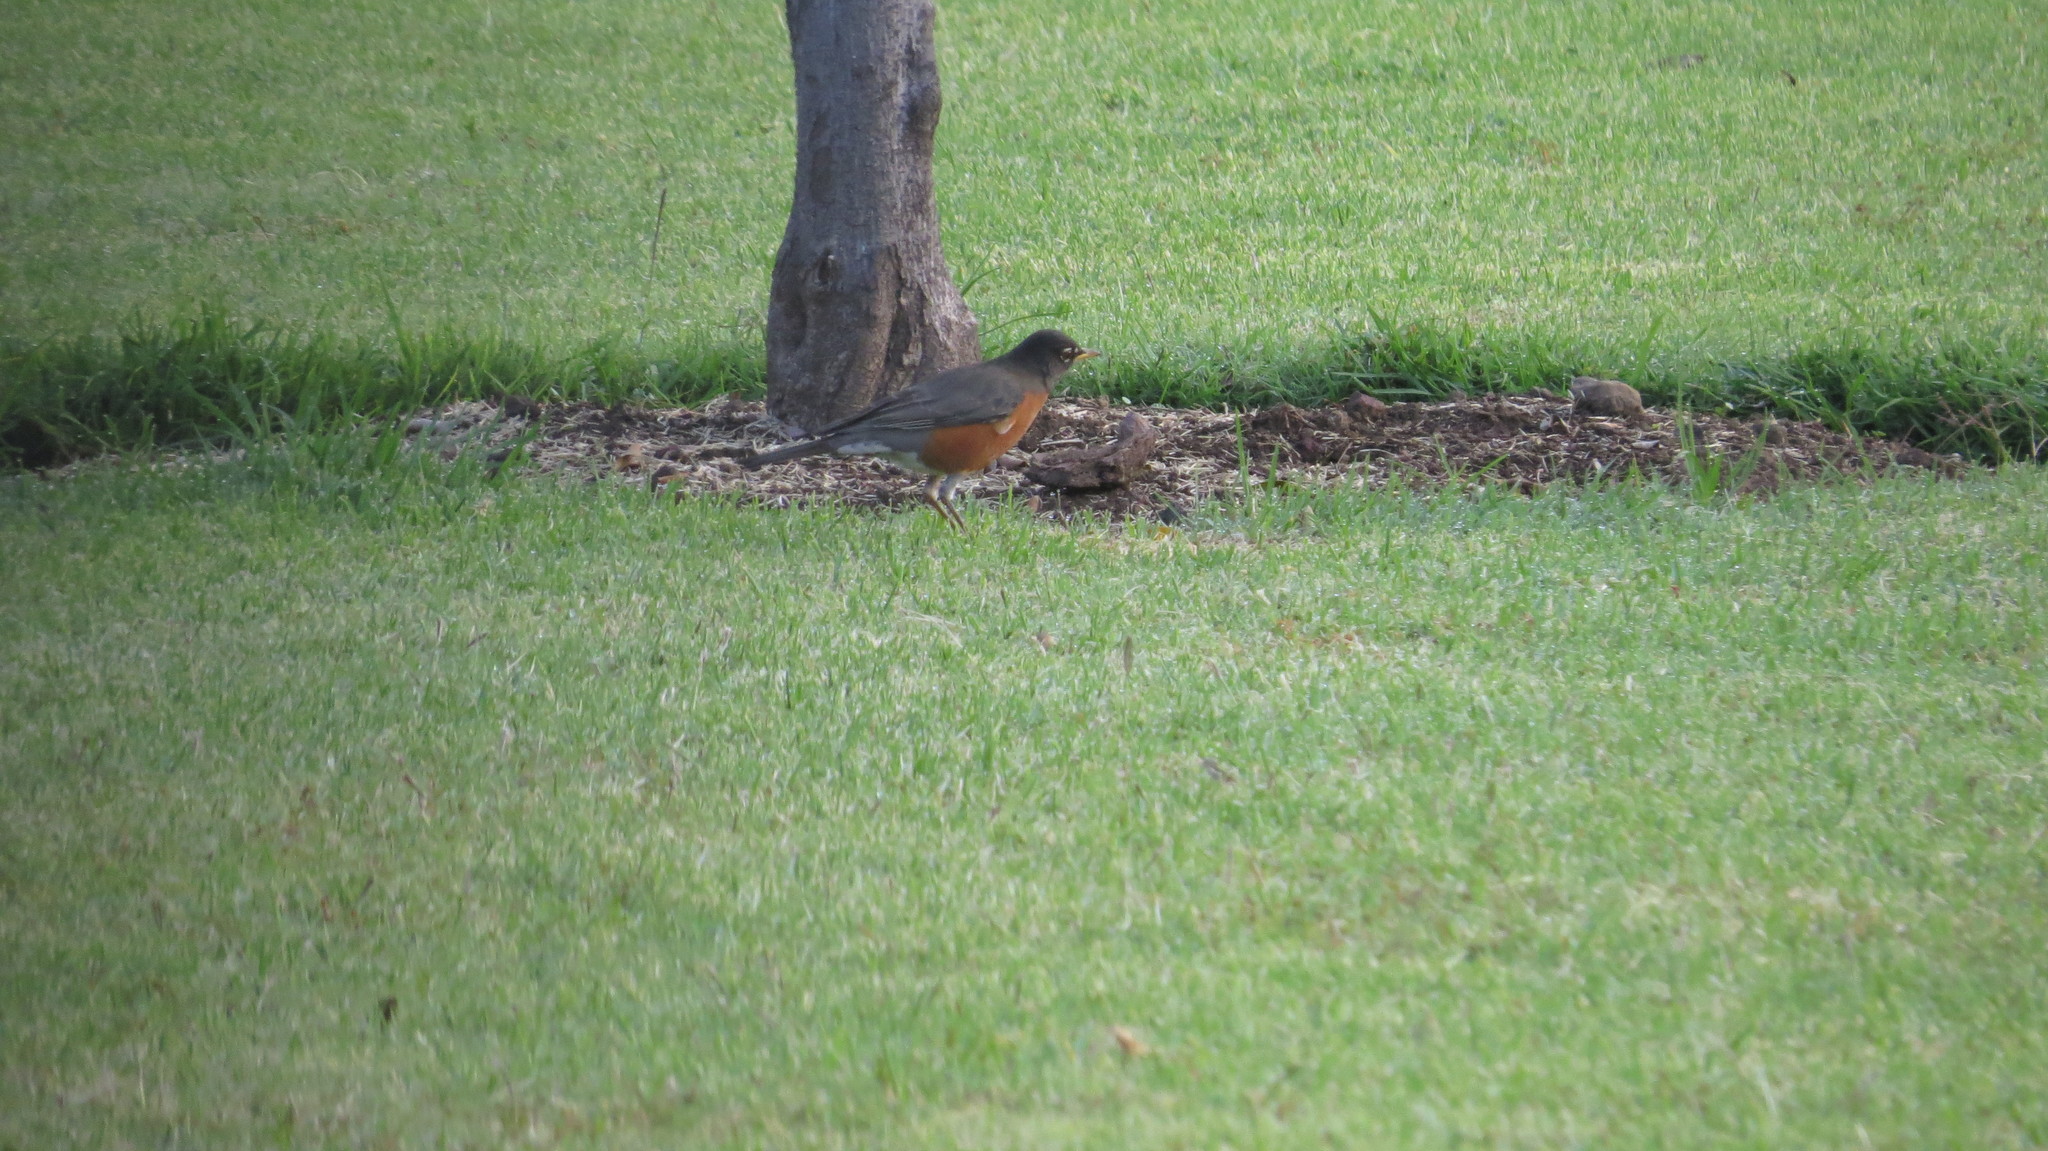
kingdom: Animalia
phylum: Chordata
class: Aves
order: Passeriformes
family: Turdidae
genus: Turdus
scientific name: Turdus migratorius
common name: American robin
